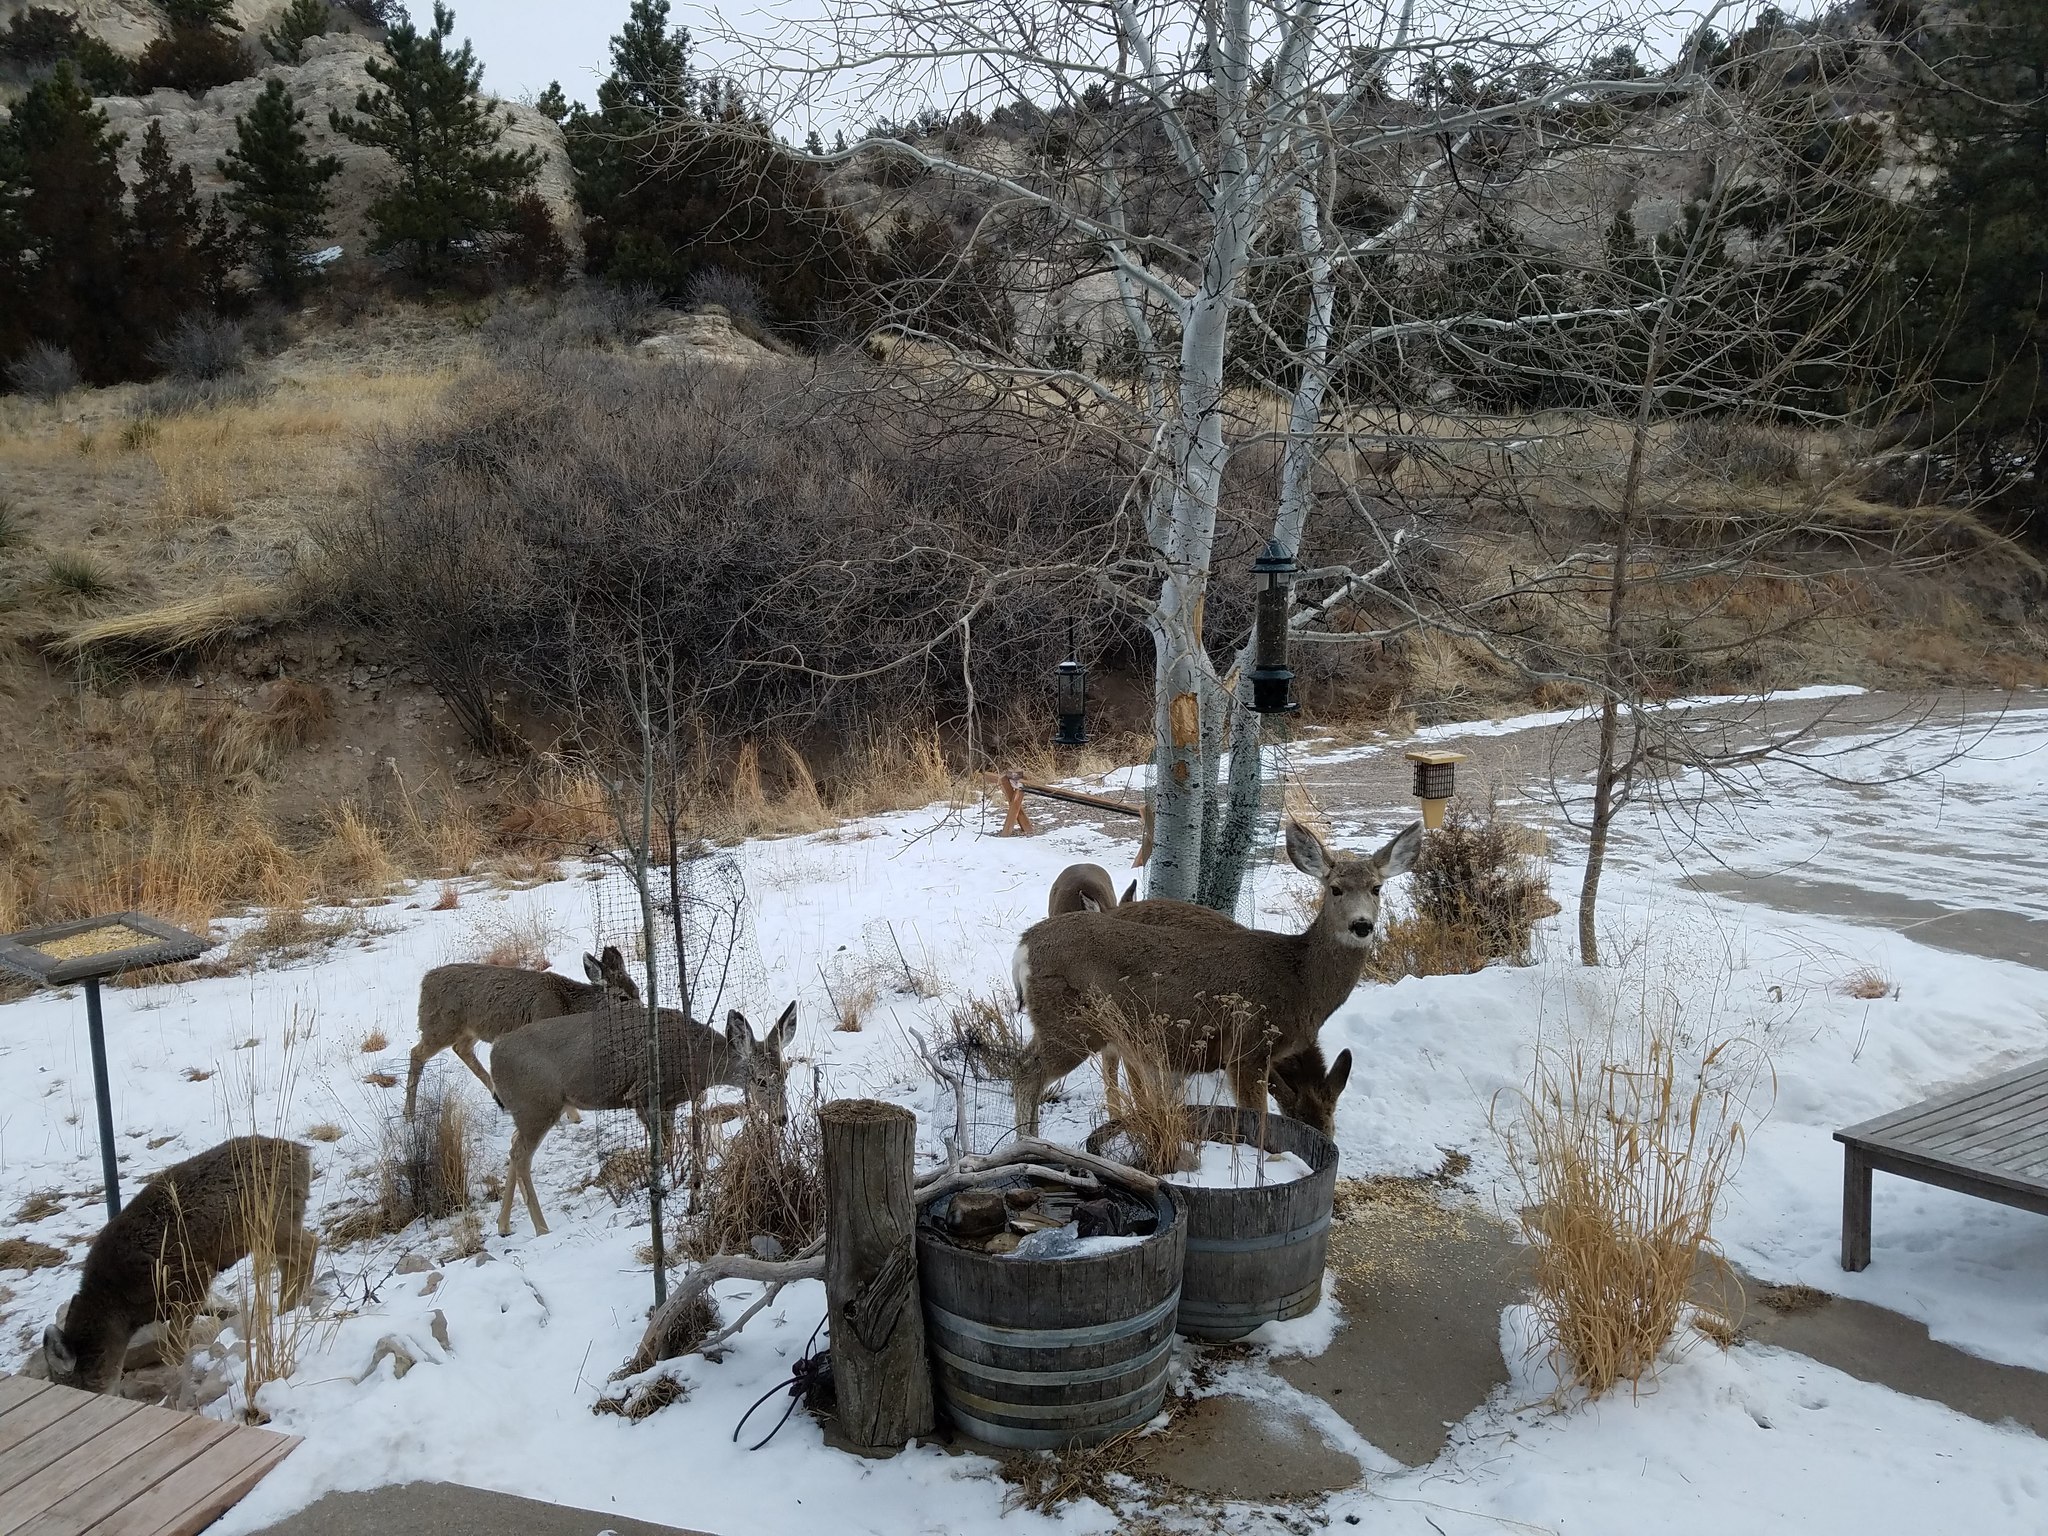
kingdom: Animalia
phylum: Chordata
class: Mammalia
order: Artiodactyla
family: Cervidae
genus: Odocoileus
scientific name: Odocoileus hemionus
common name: Mule deer
